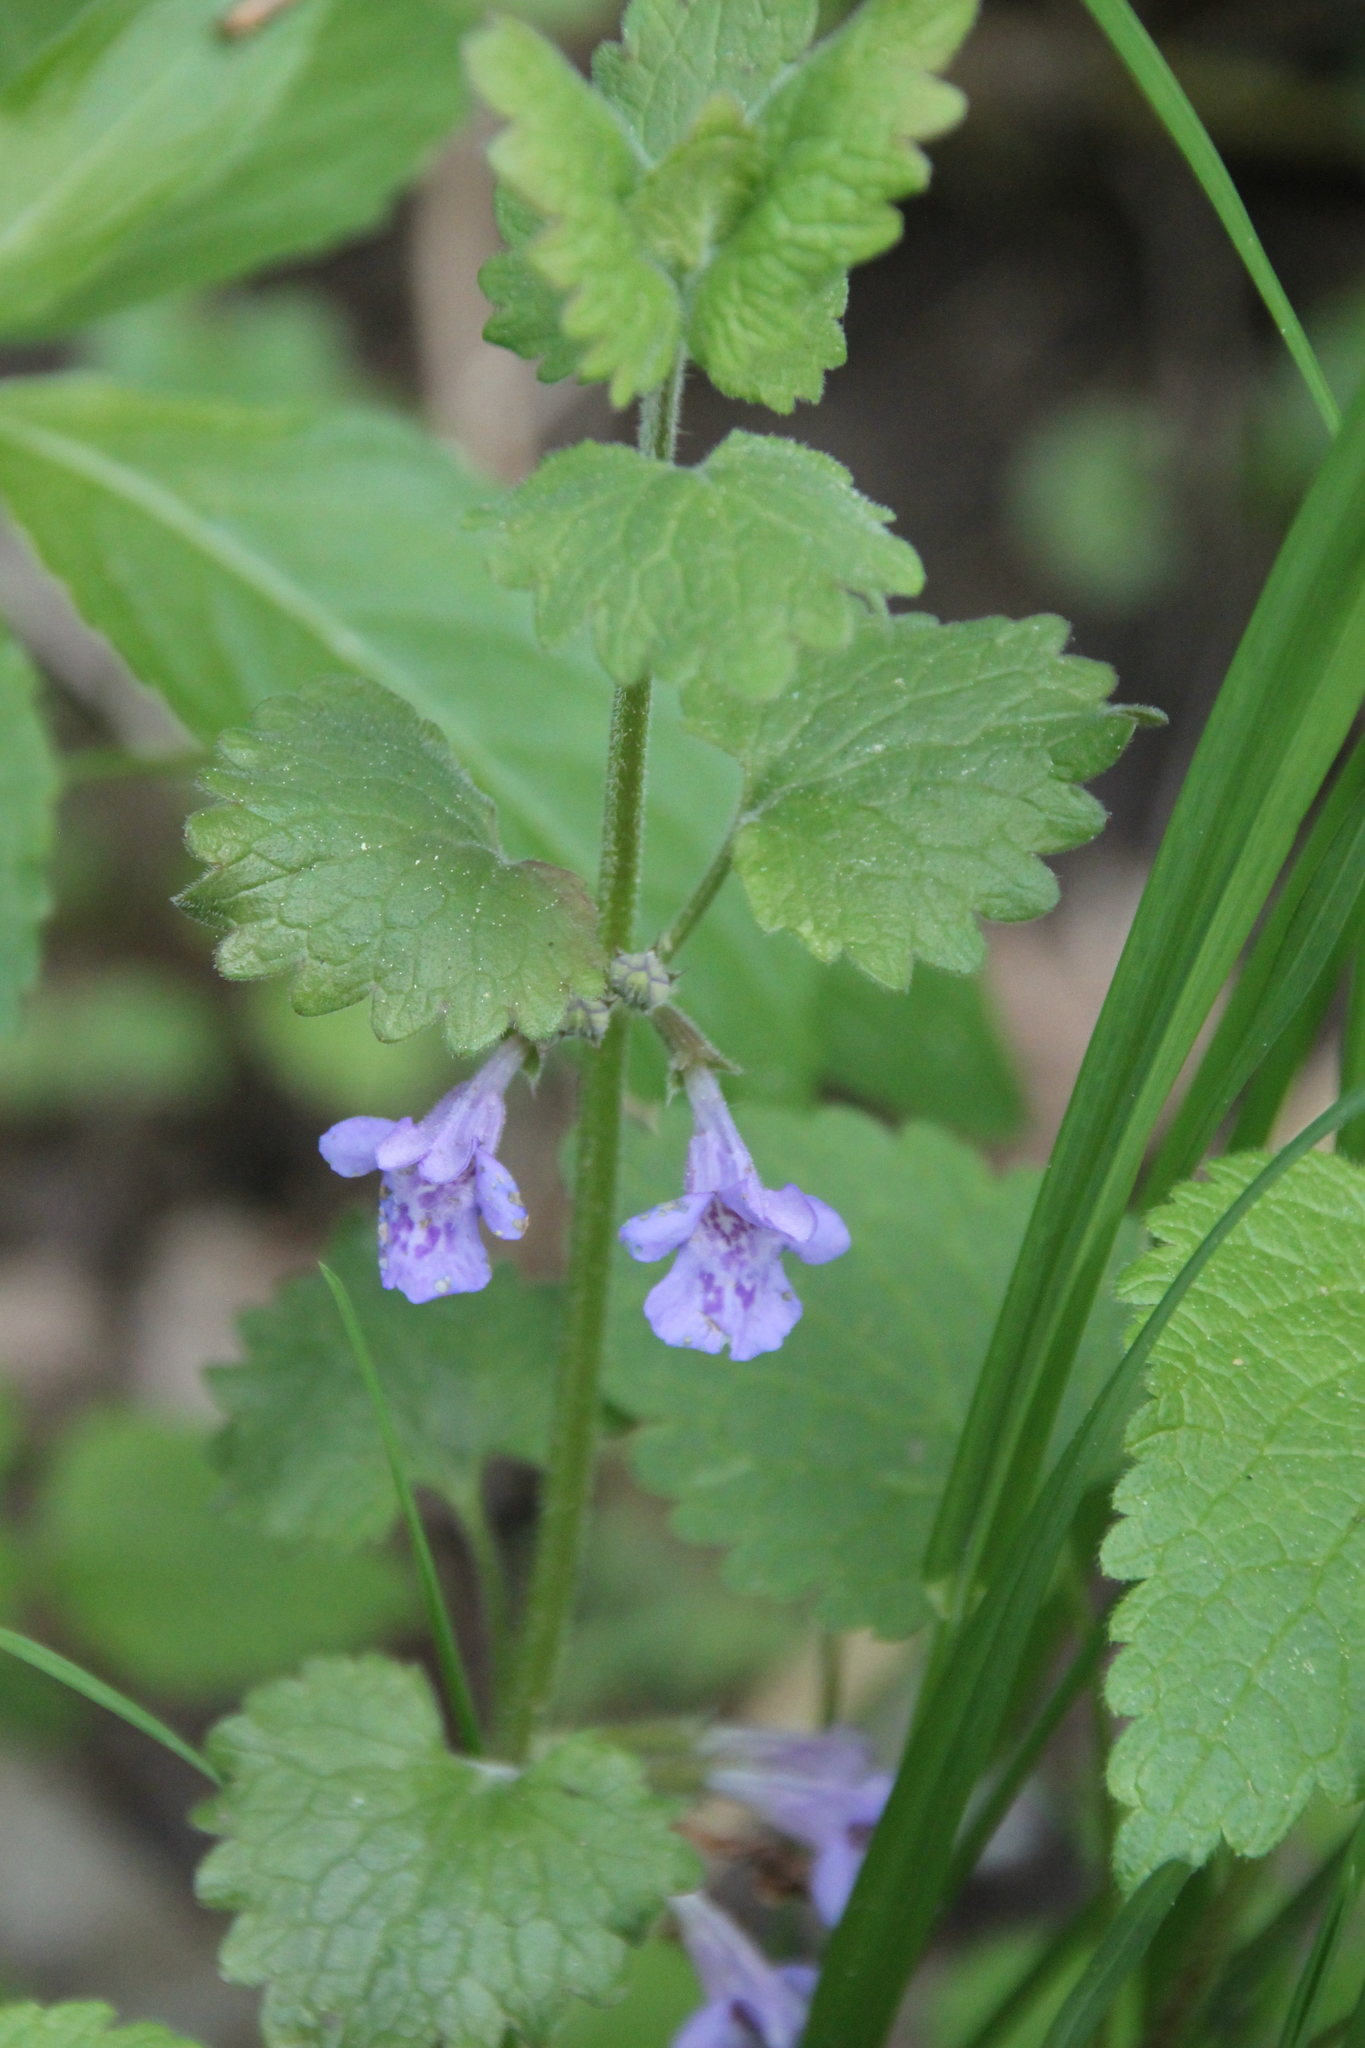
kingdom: Plantae
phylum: Tracheophyta
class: Magnoliopsida
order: Lamiales
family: Lamiaceae
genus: Glechoma
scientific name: Glechoma hederacea
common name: Ground ivy
